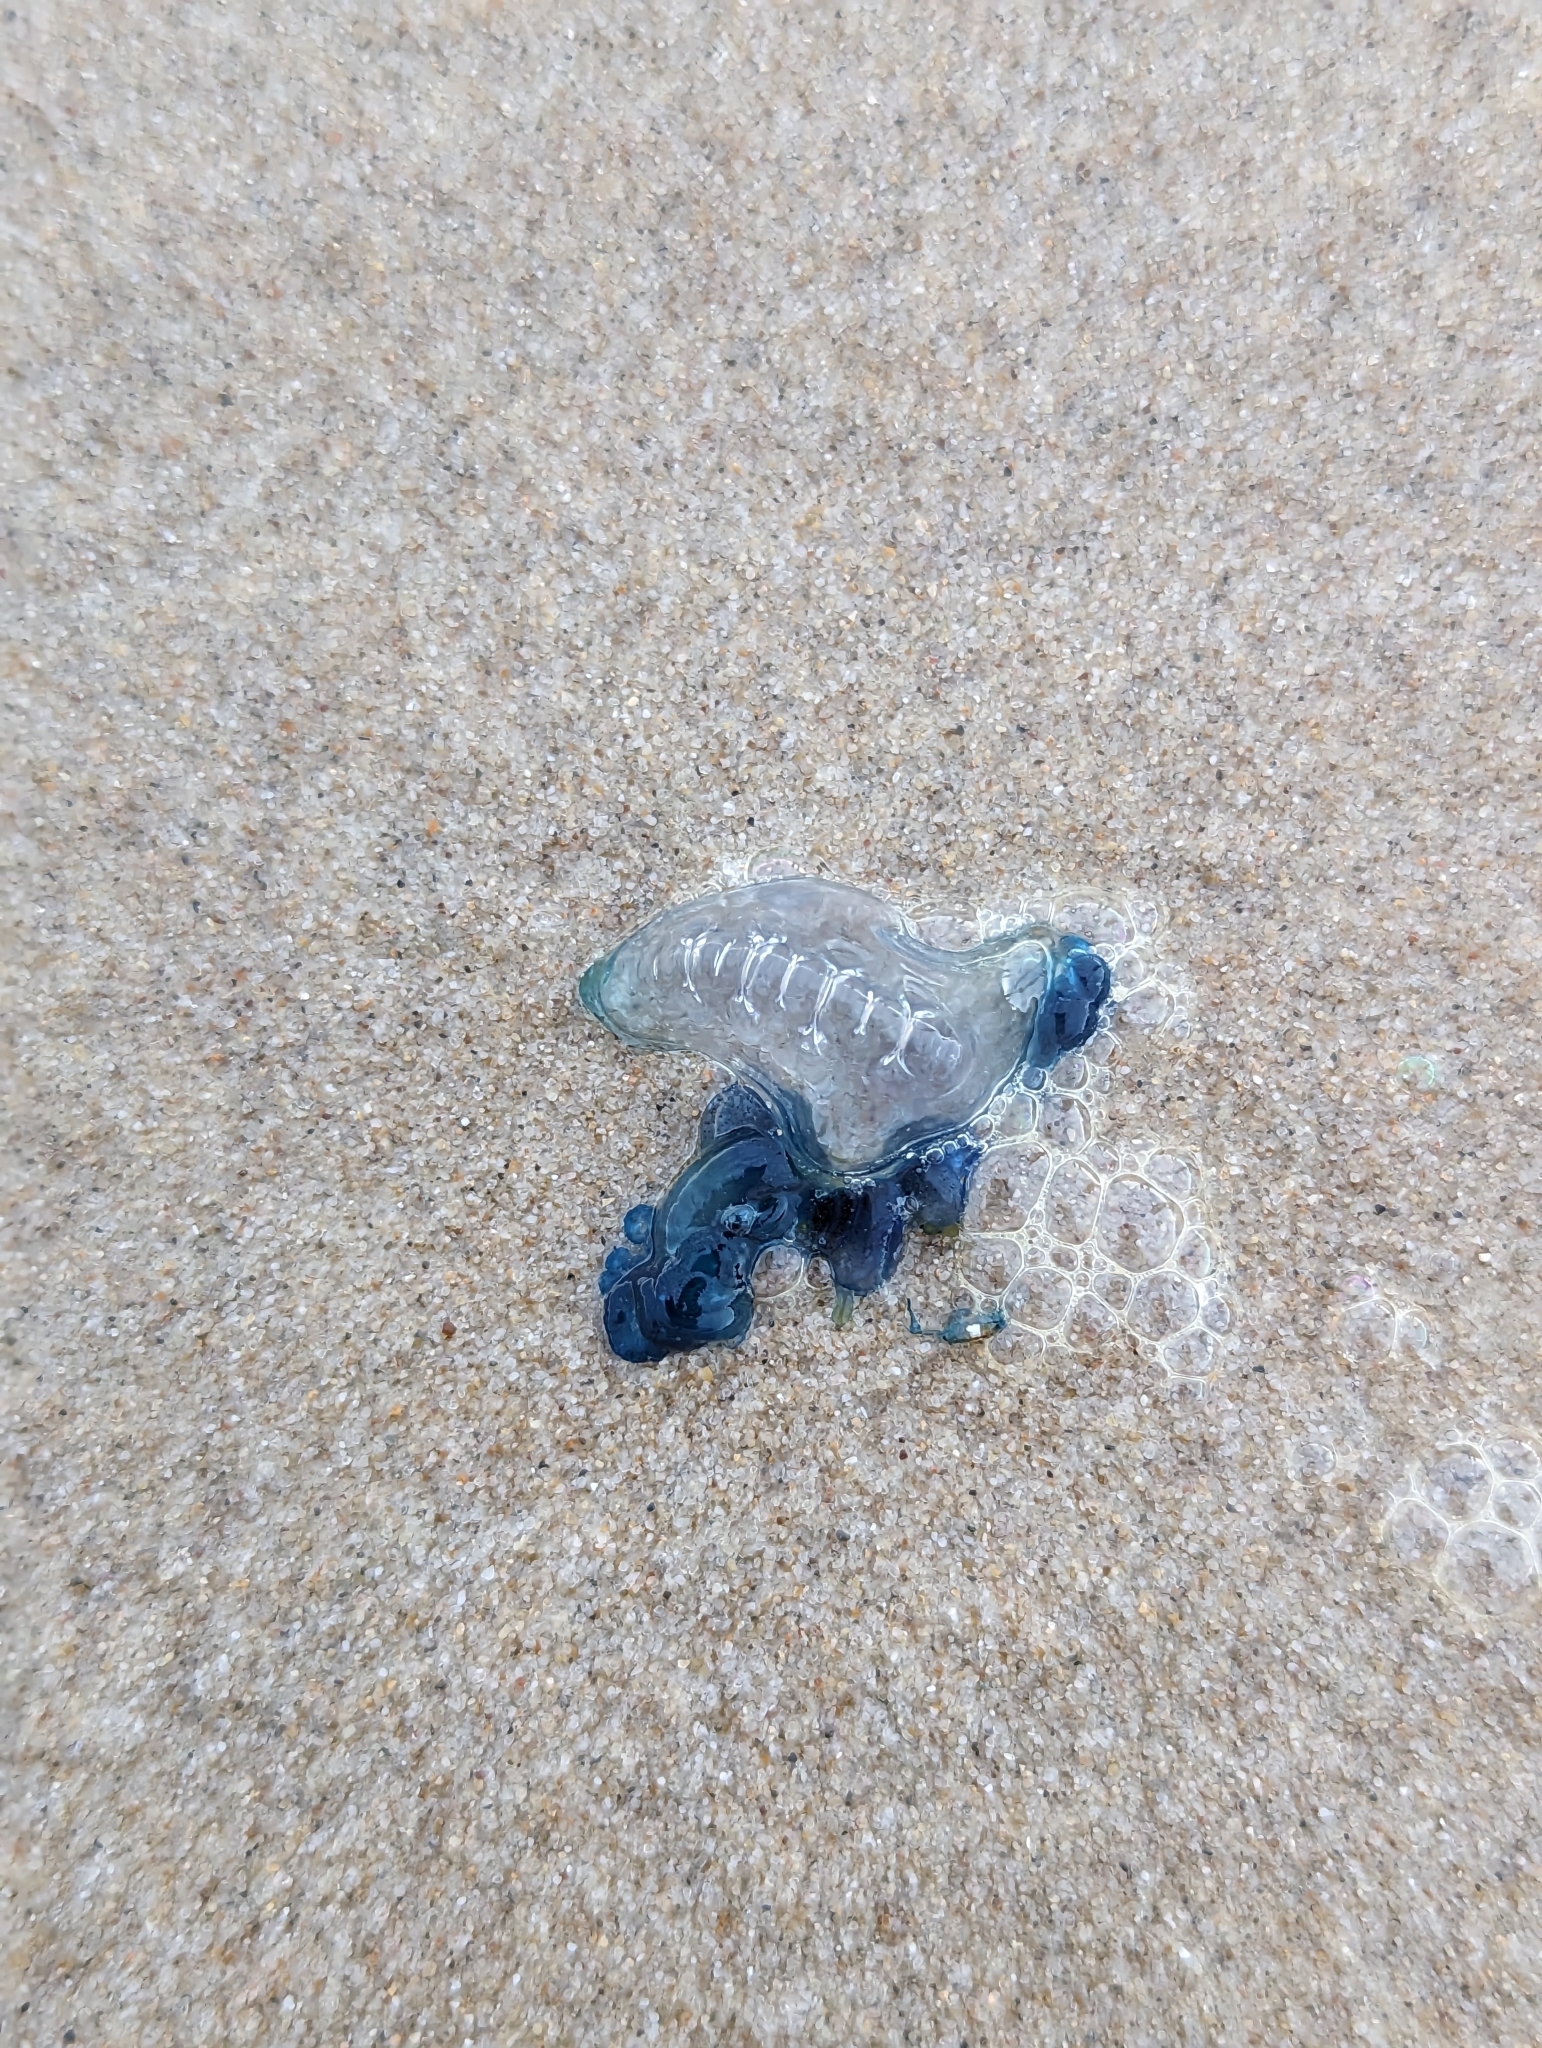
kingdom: Animalia
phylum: Cnidaria
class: Hydrozoa
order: Siphonophorae
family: Physaliidae
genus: Physalia
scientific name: Physalia physalis
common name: Portuguese man-of-war
